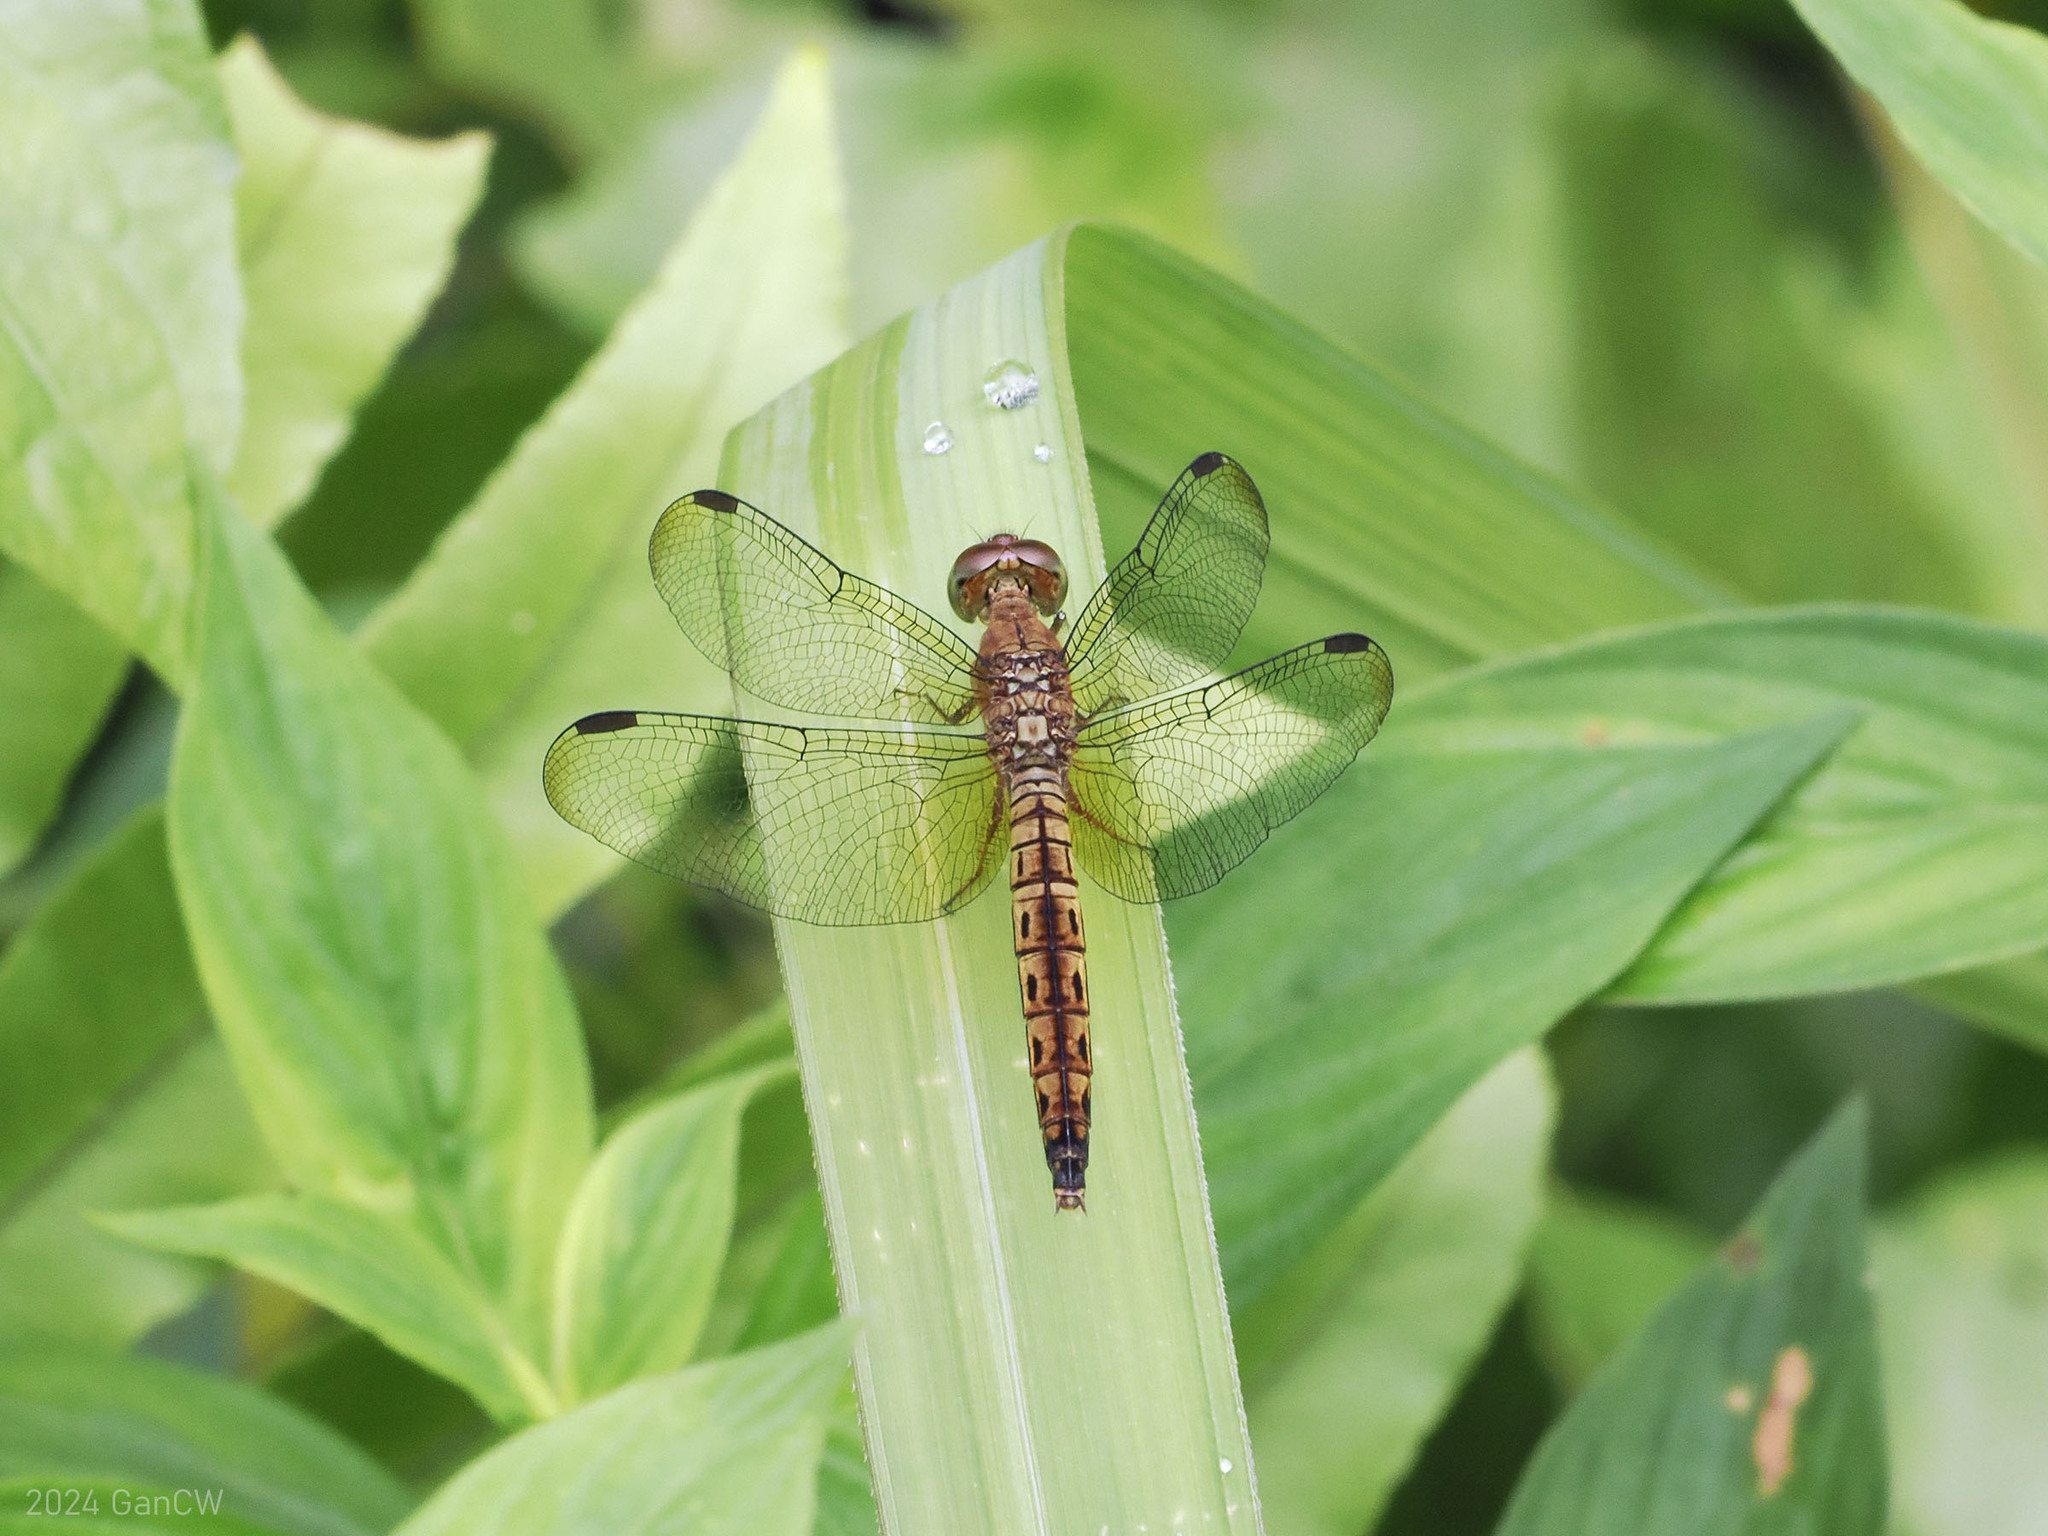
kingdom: Animalia
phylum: Arthropoda
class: Insecta
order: Odonata
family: Libellulidae
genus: Neurothemis
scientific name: Neurothemis fluctuans
